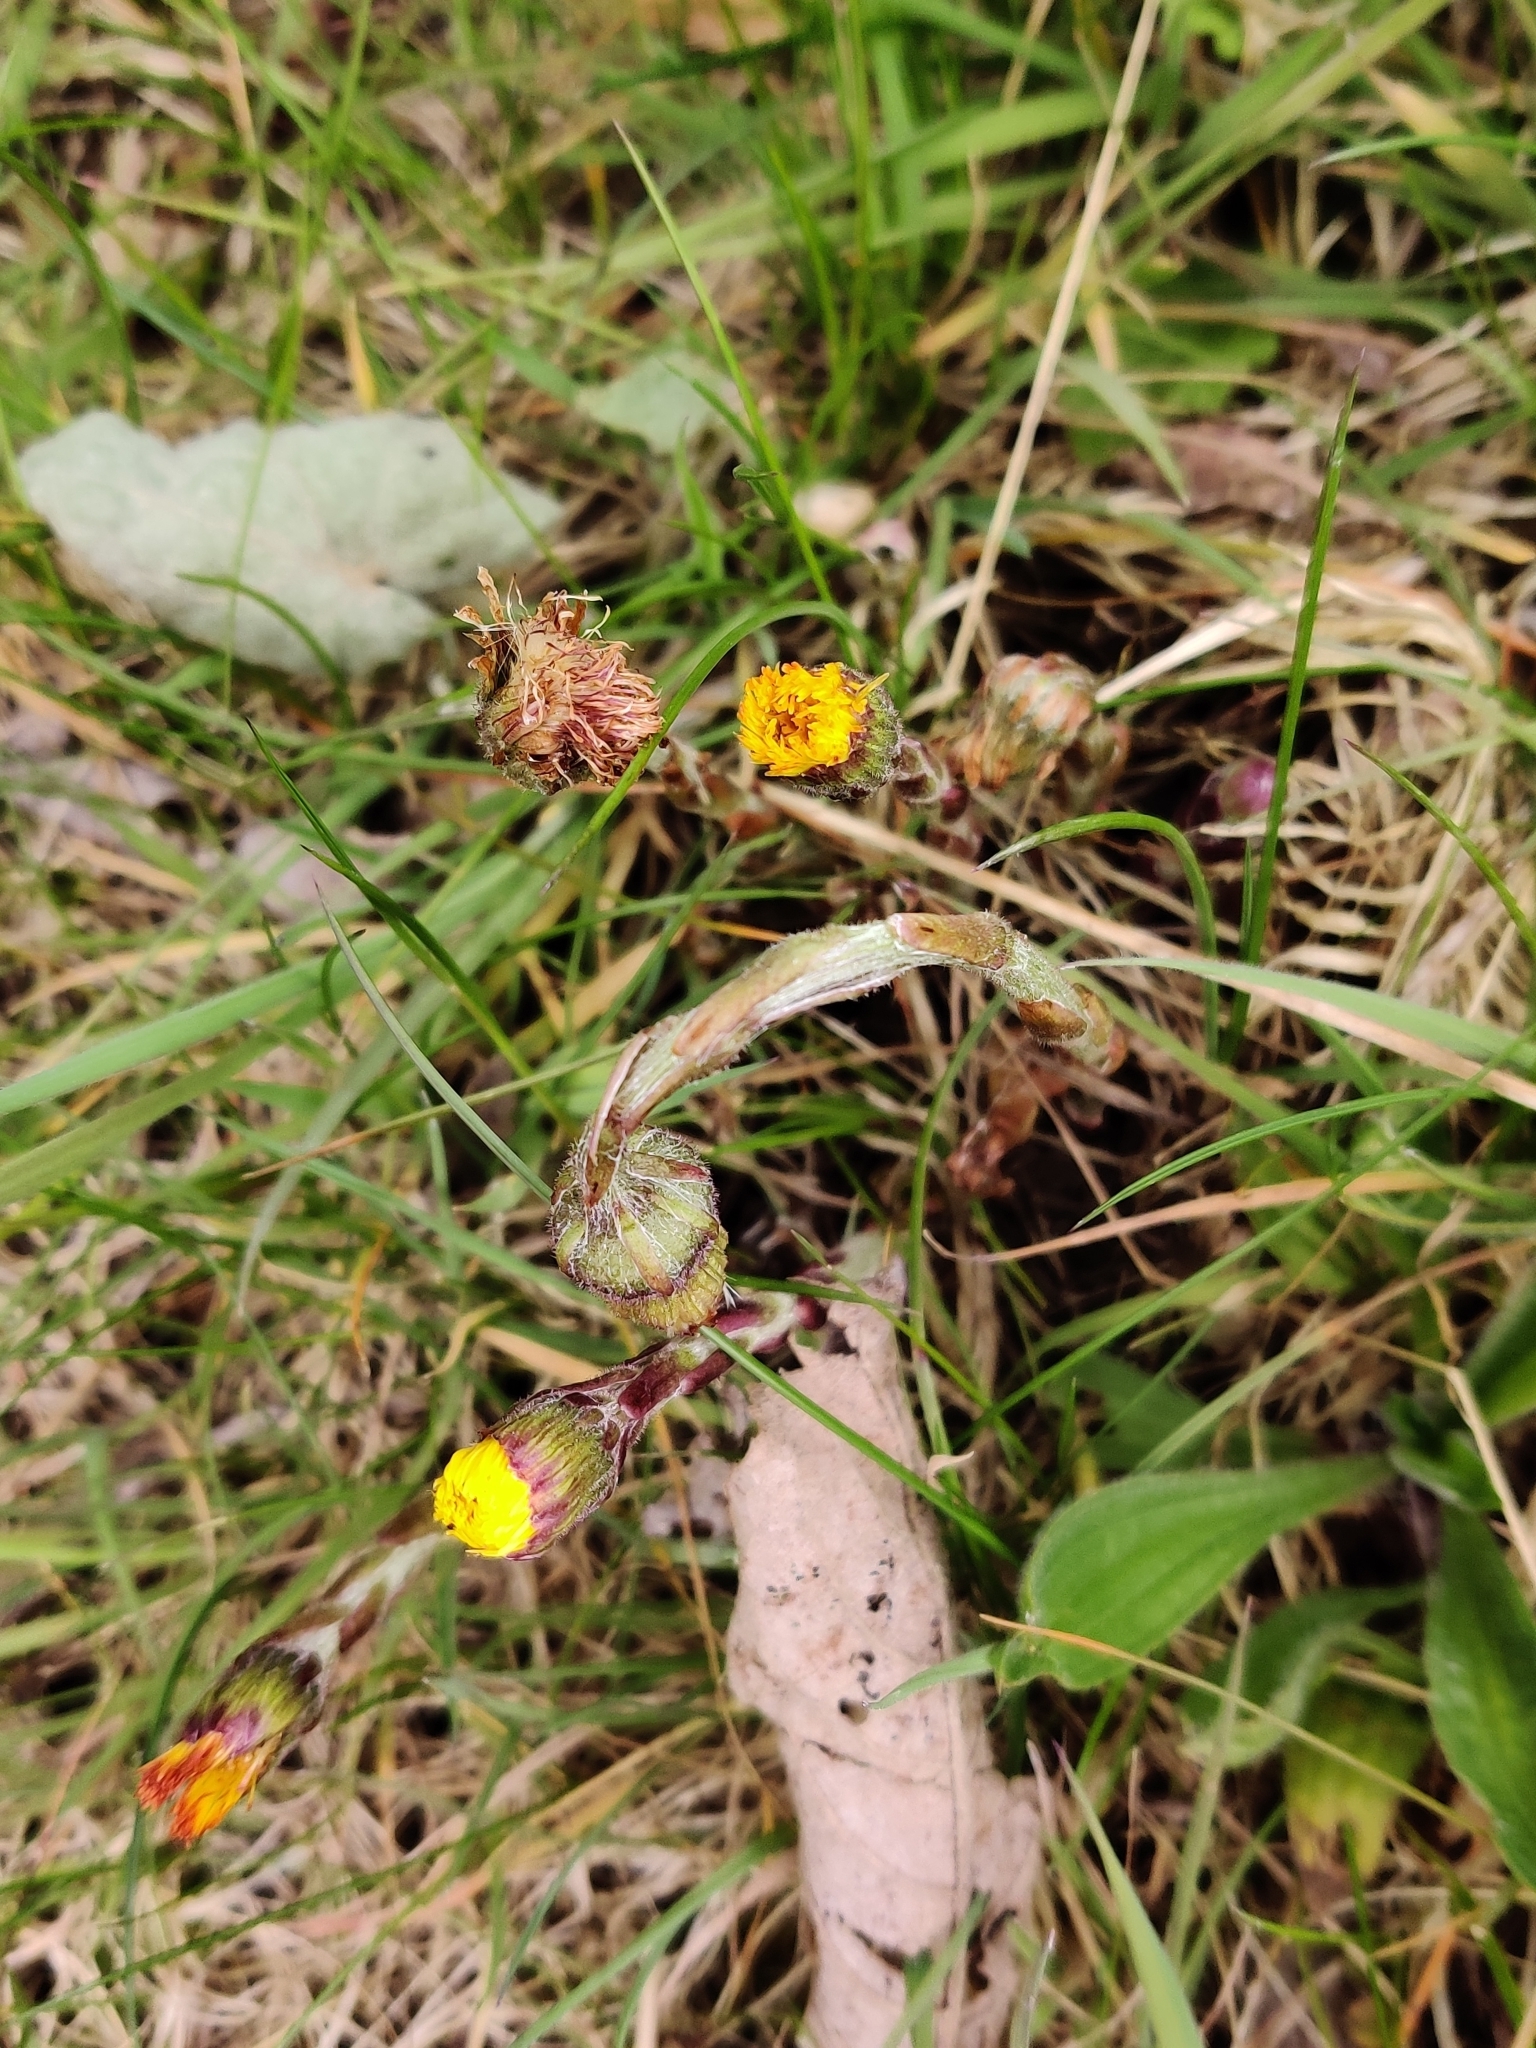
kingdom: Plantae
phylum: Tracheophyta
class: Magnoliopsida
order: Asterales
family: Asteraceae
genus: Tussilago
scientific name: Tussilago farfara
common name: Coltsfoot
